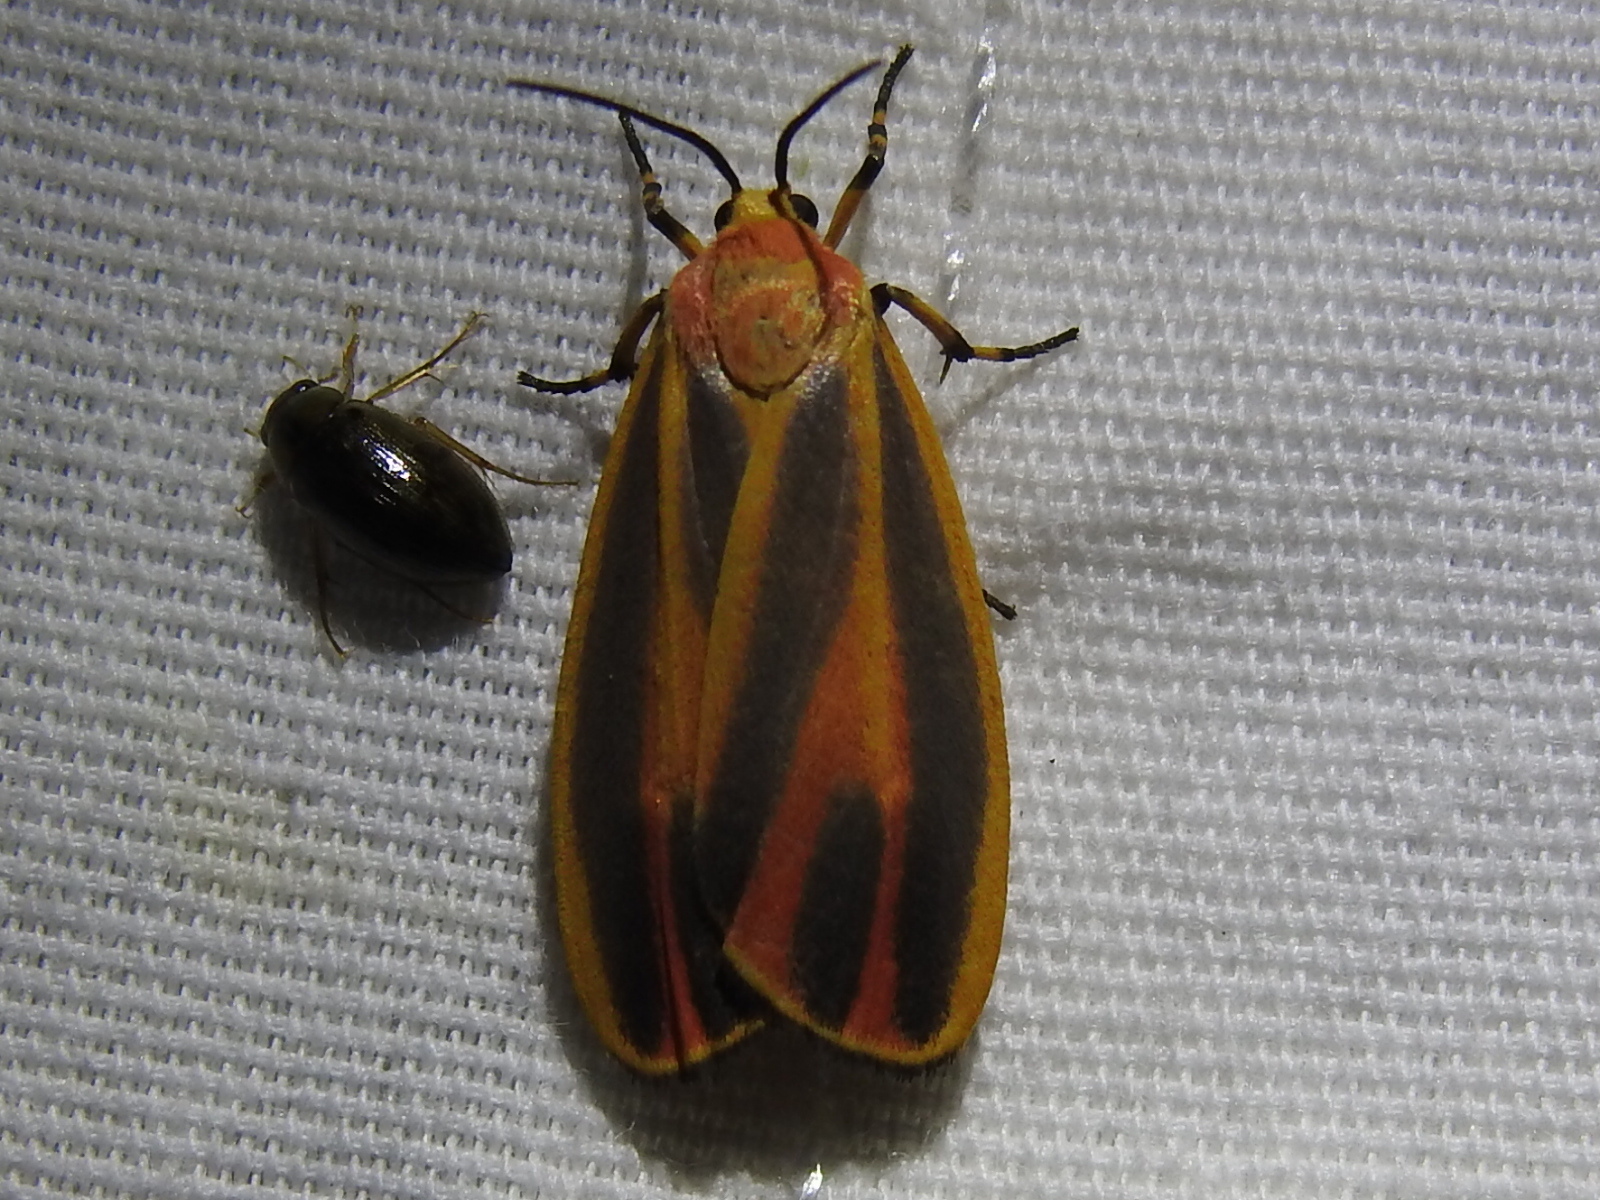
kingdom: Animalia
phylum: Arthropoda
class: Insecta
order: Lepidoptera
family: Erebidae
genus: Hypoprepia
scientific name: Hypoprepia fucosa
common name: Painted lichen moth
